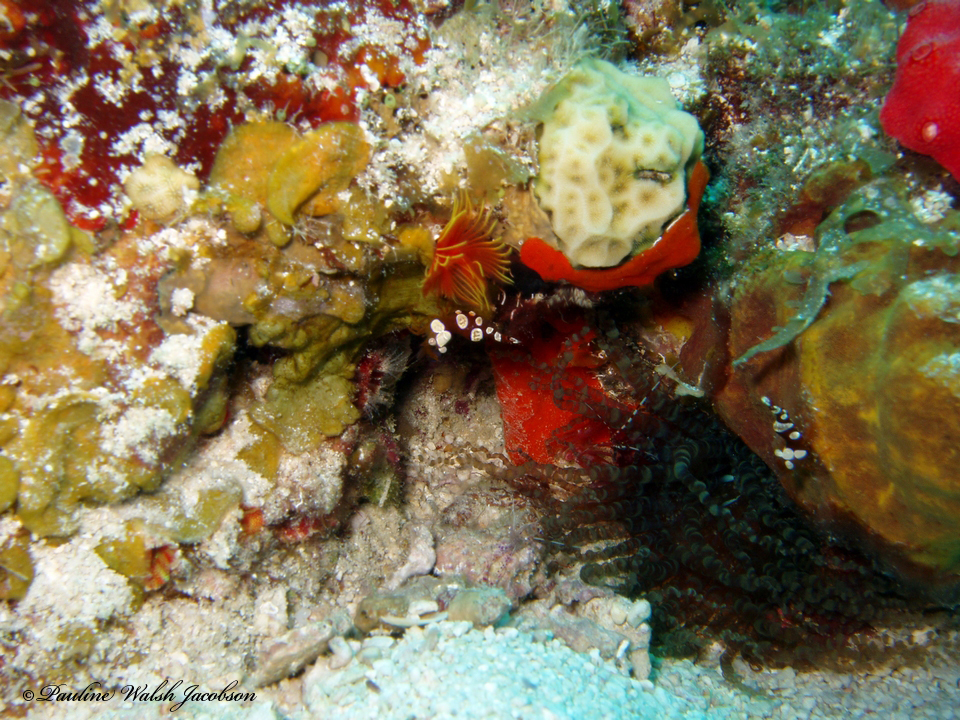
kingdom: Animalia
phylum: Arthropoda
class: Malacostraca
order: Decapoda
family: Thoridae
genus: Thor
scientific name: Thor dicaprio
